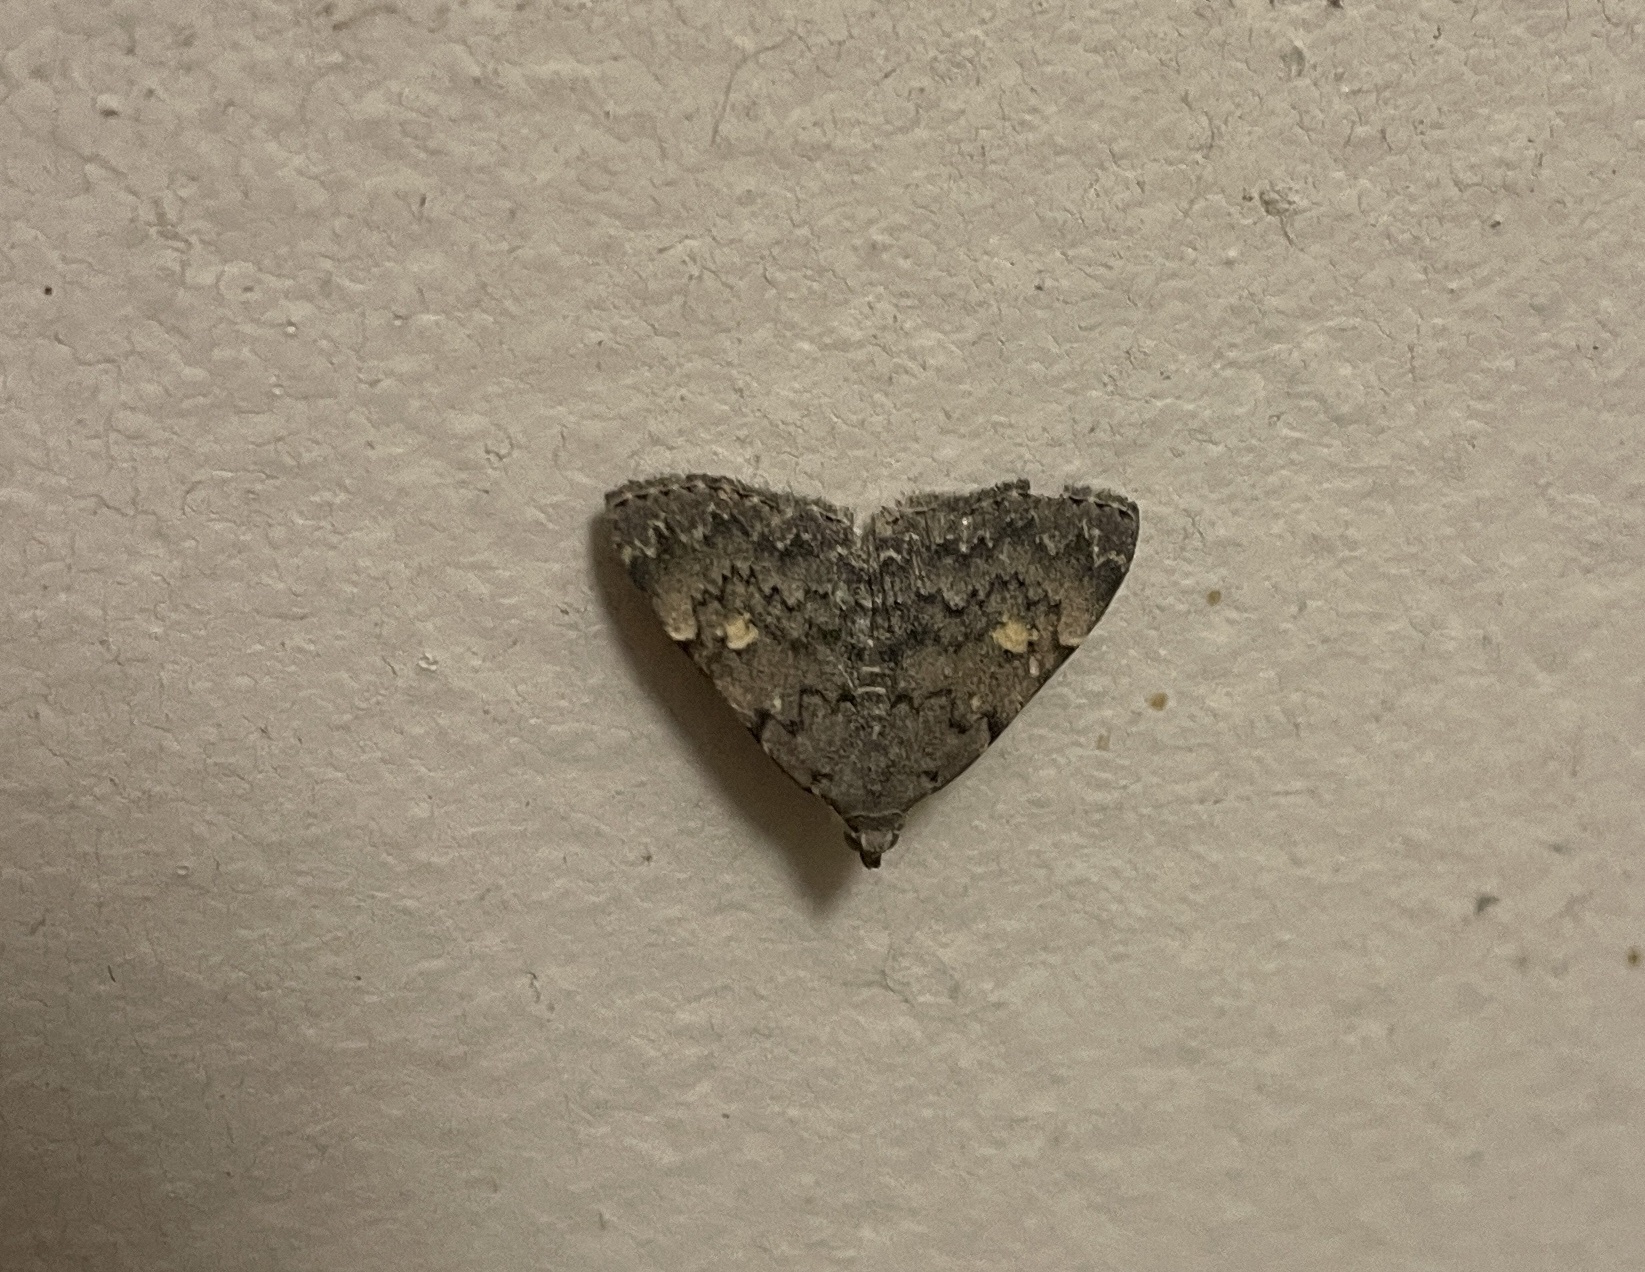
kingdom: Animalia
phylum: Arthropoda
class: Insecta
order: Lepidoptera
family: Erebidae
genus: Idia
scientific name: Idia aemula
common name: Common idia moth
